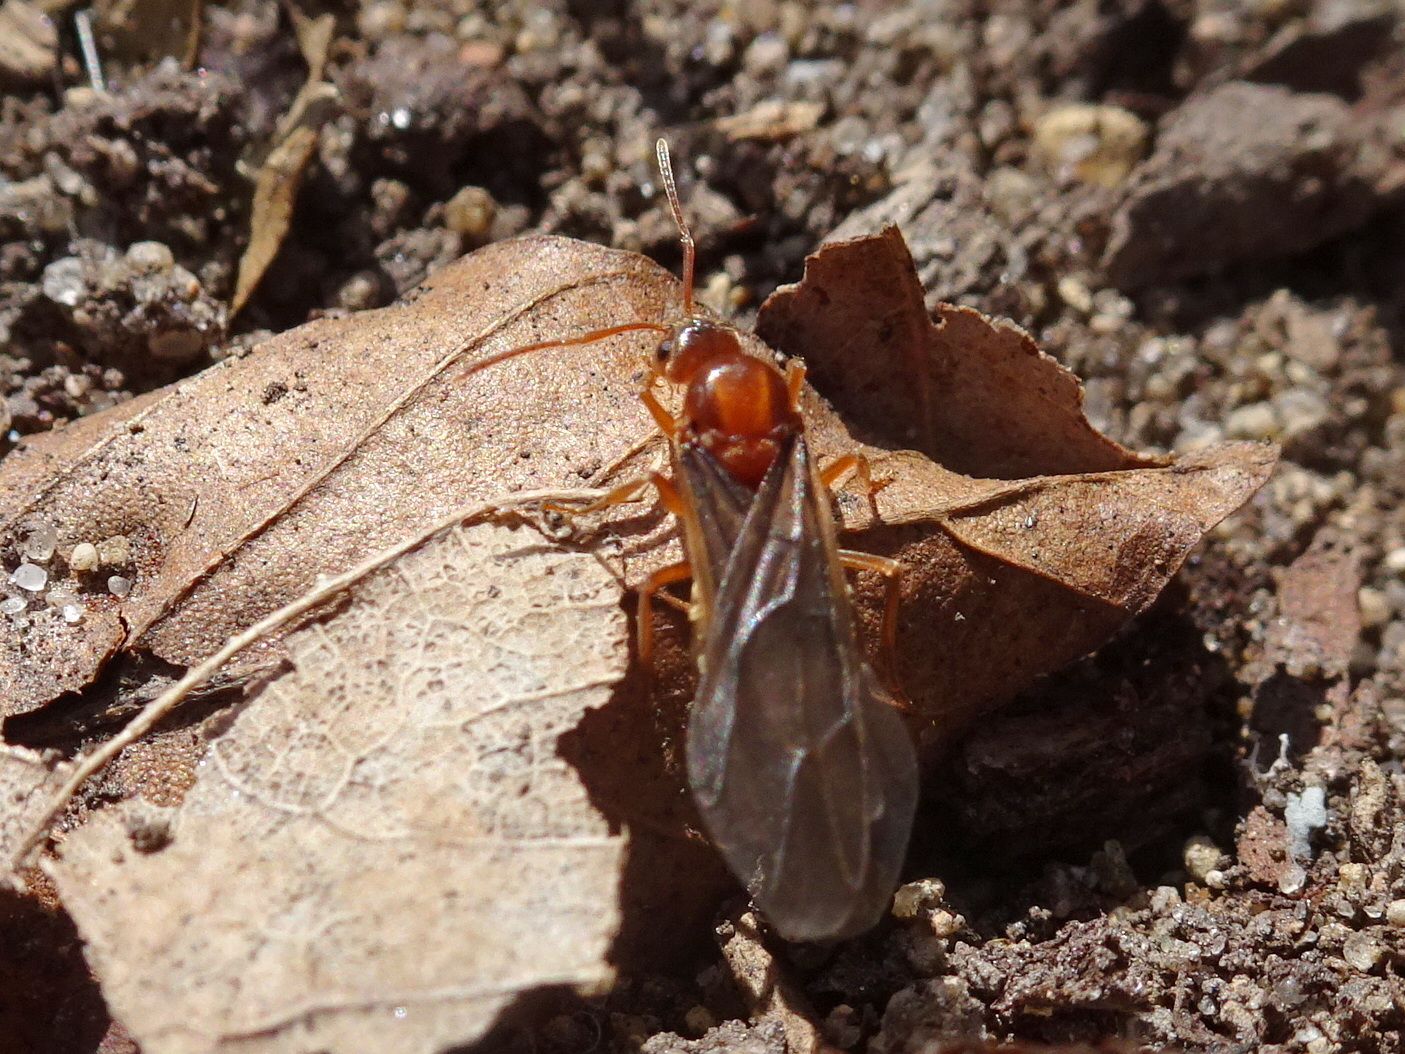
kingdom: Animalia
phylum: Arthropoda
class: Insecta
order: Hymenoptera
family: Formicidae
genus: Prenolepis
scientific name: Prenolepis imparis
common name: Small honey ant
